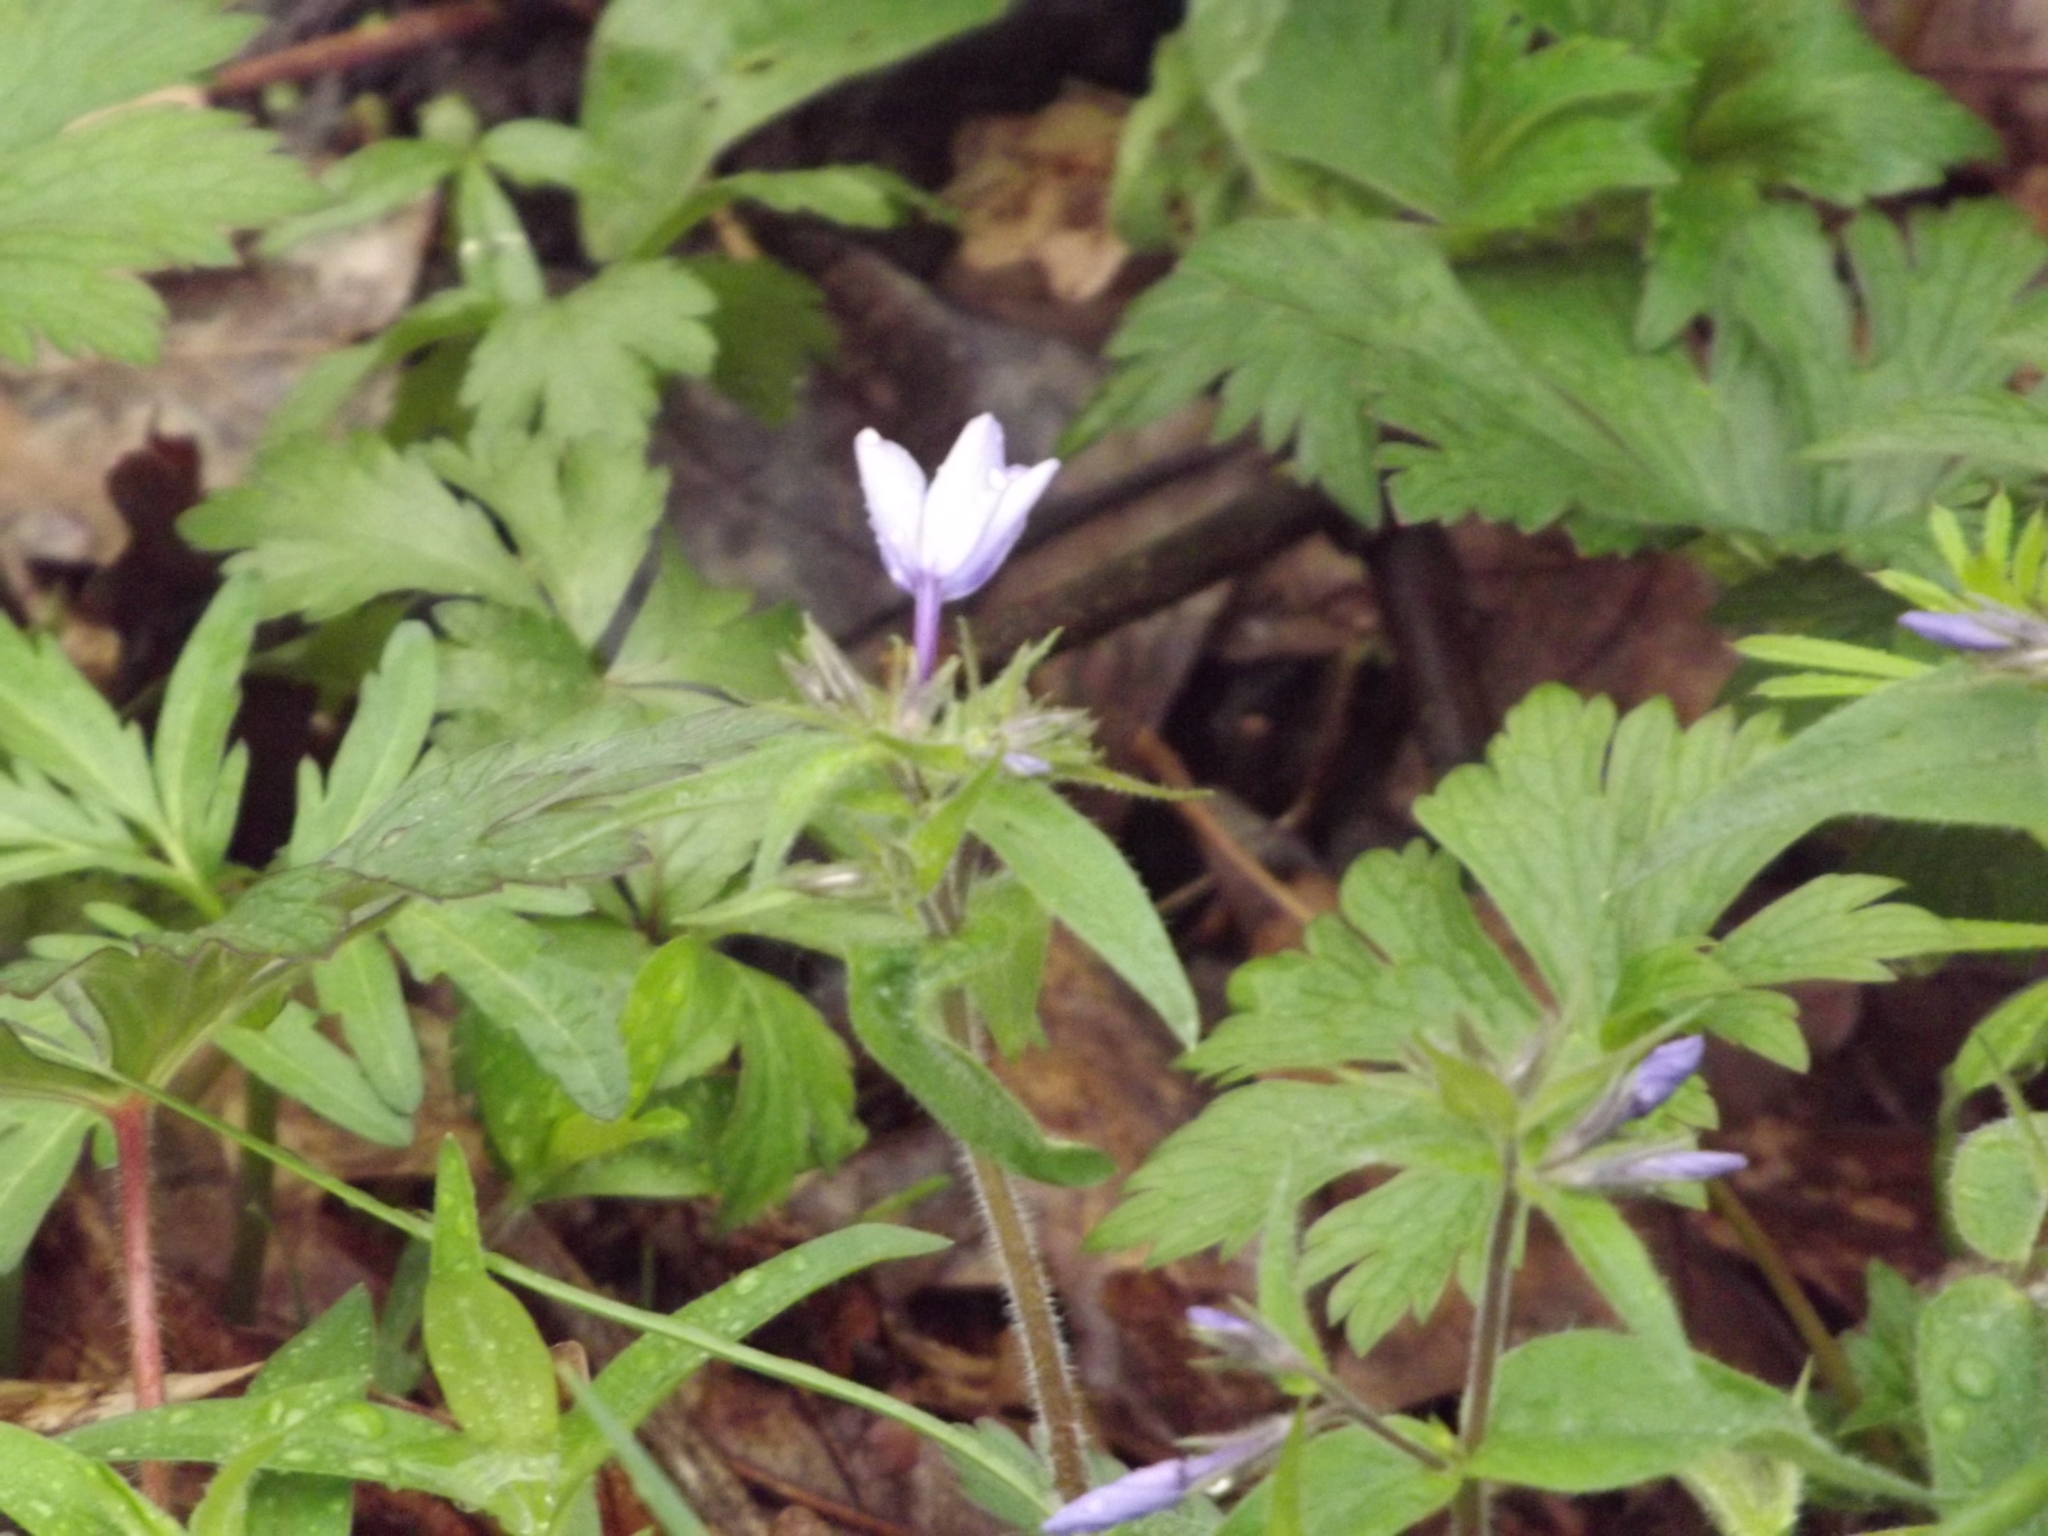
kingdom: Plantae
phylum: Tracheophyta
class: Magnoliopsida
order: Ericales
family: Polemoniaceae
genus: Phlox
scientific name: Phlox divaricata
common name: Blue phlox
